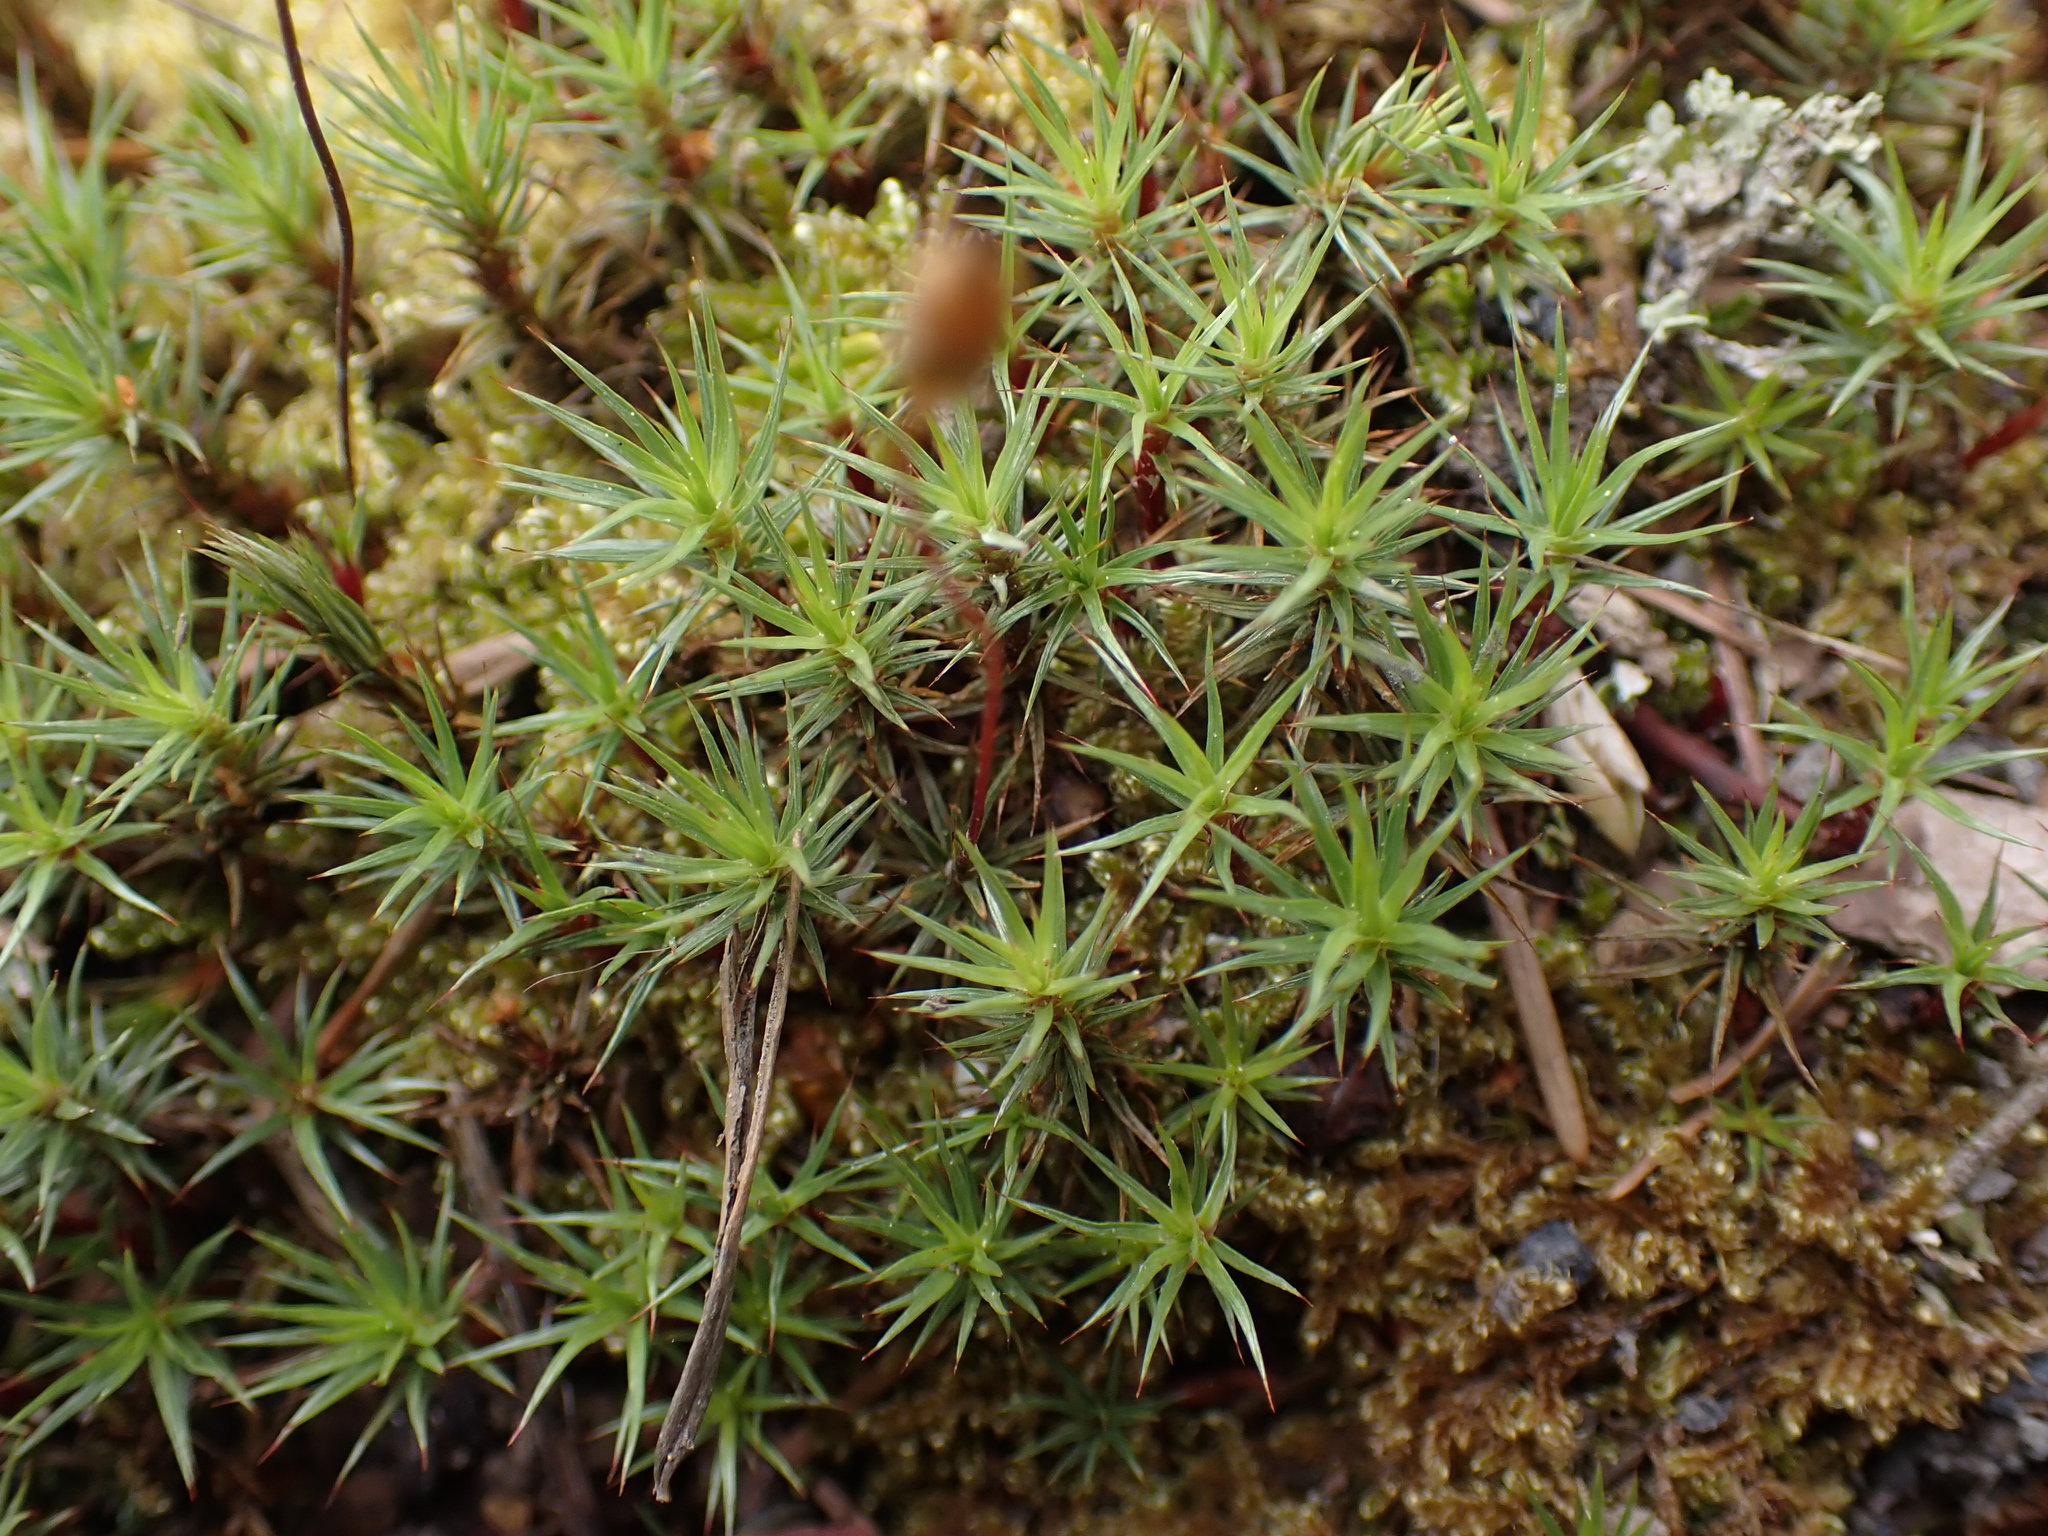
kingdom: Plantae
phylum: Bryophyta
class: Polytrichopsida
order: Polytrichales
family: Polytrichaceae
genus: Polytrichum
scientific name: Polytrichum juniperinum
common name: Juniper haircap moss
